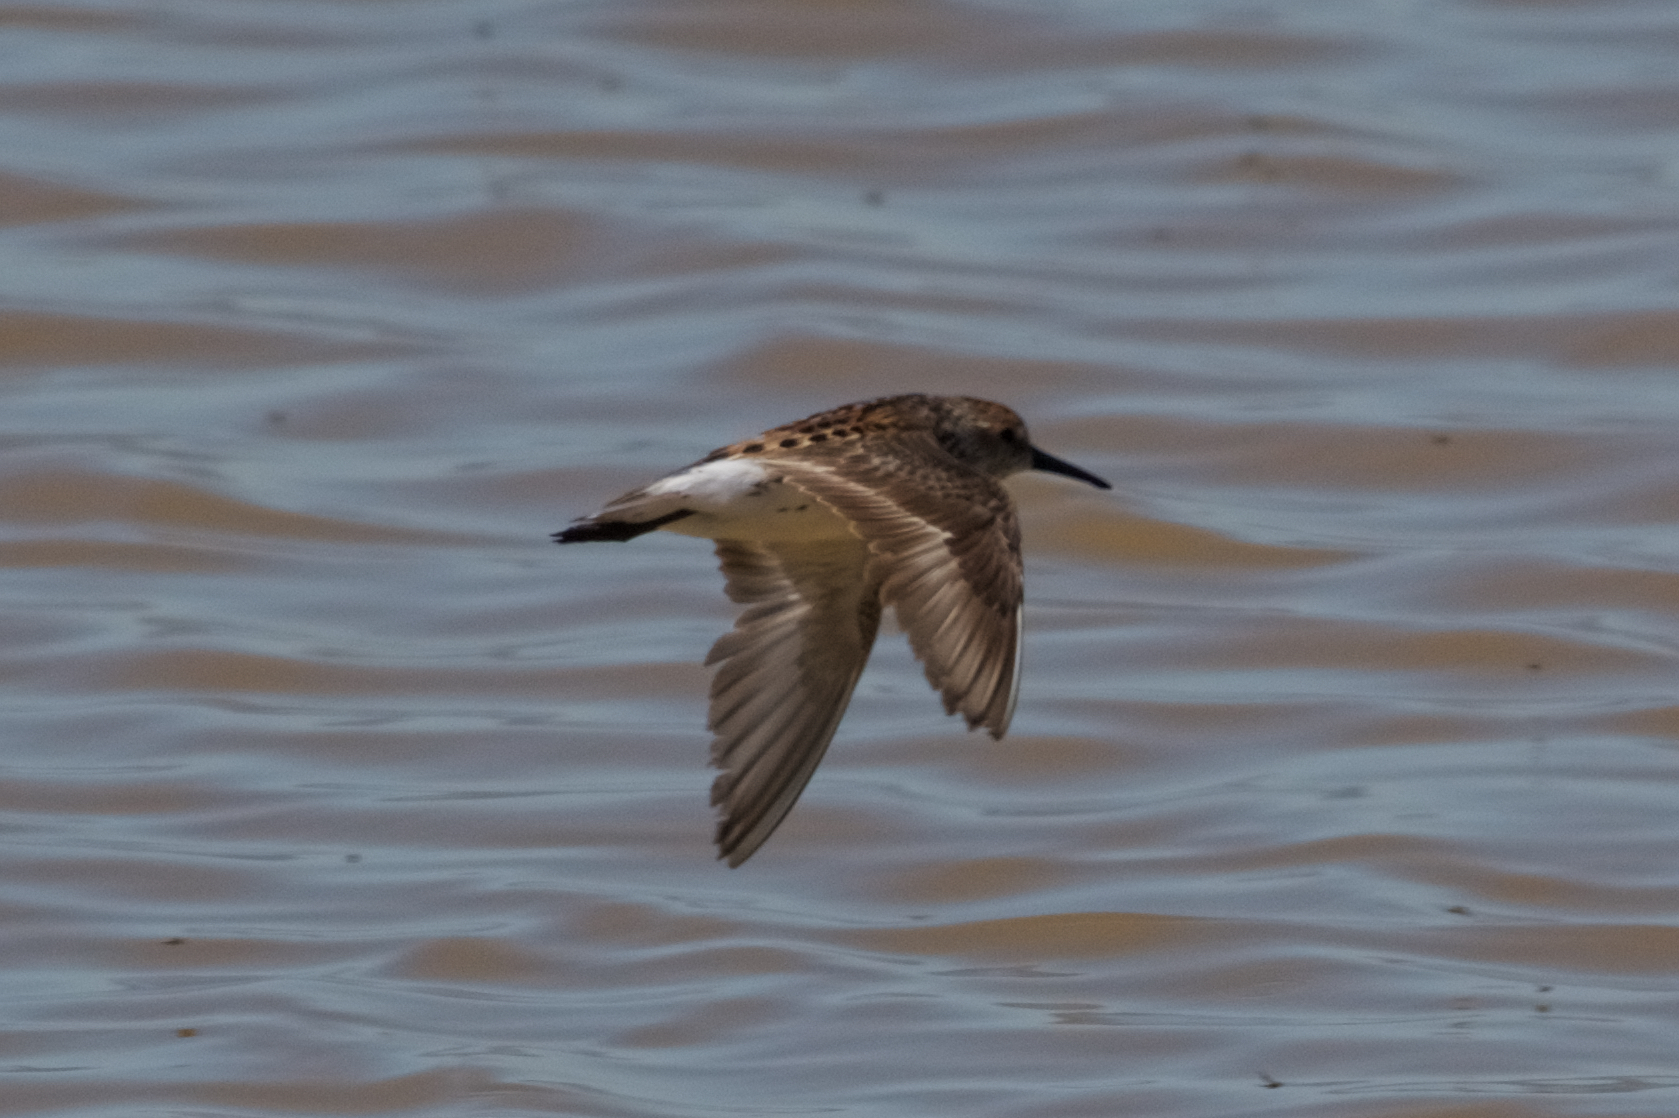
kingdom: Animalia
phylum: Chordata
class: Aves
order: Charadriiformes
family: Scolopacidae
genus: Calidris
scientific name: Calidris mauri
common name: Western sandpiper
